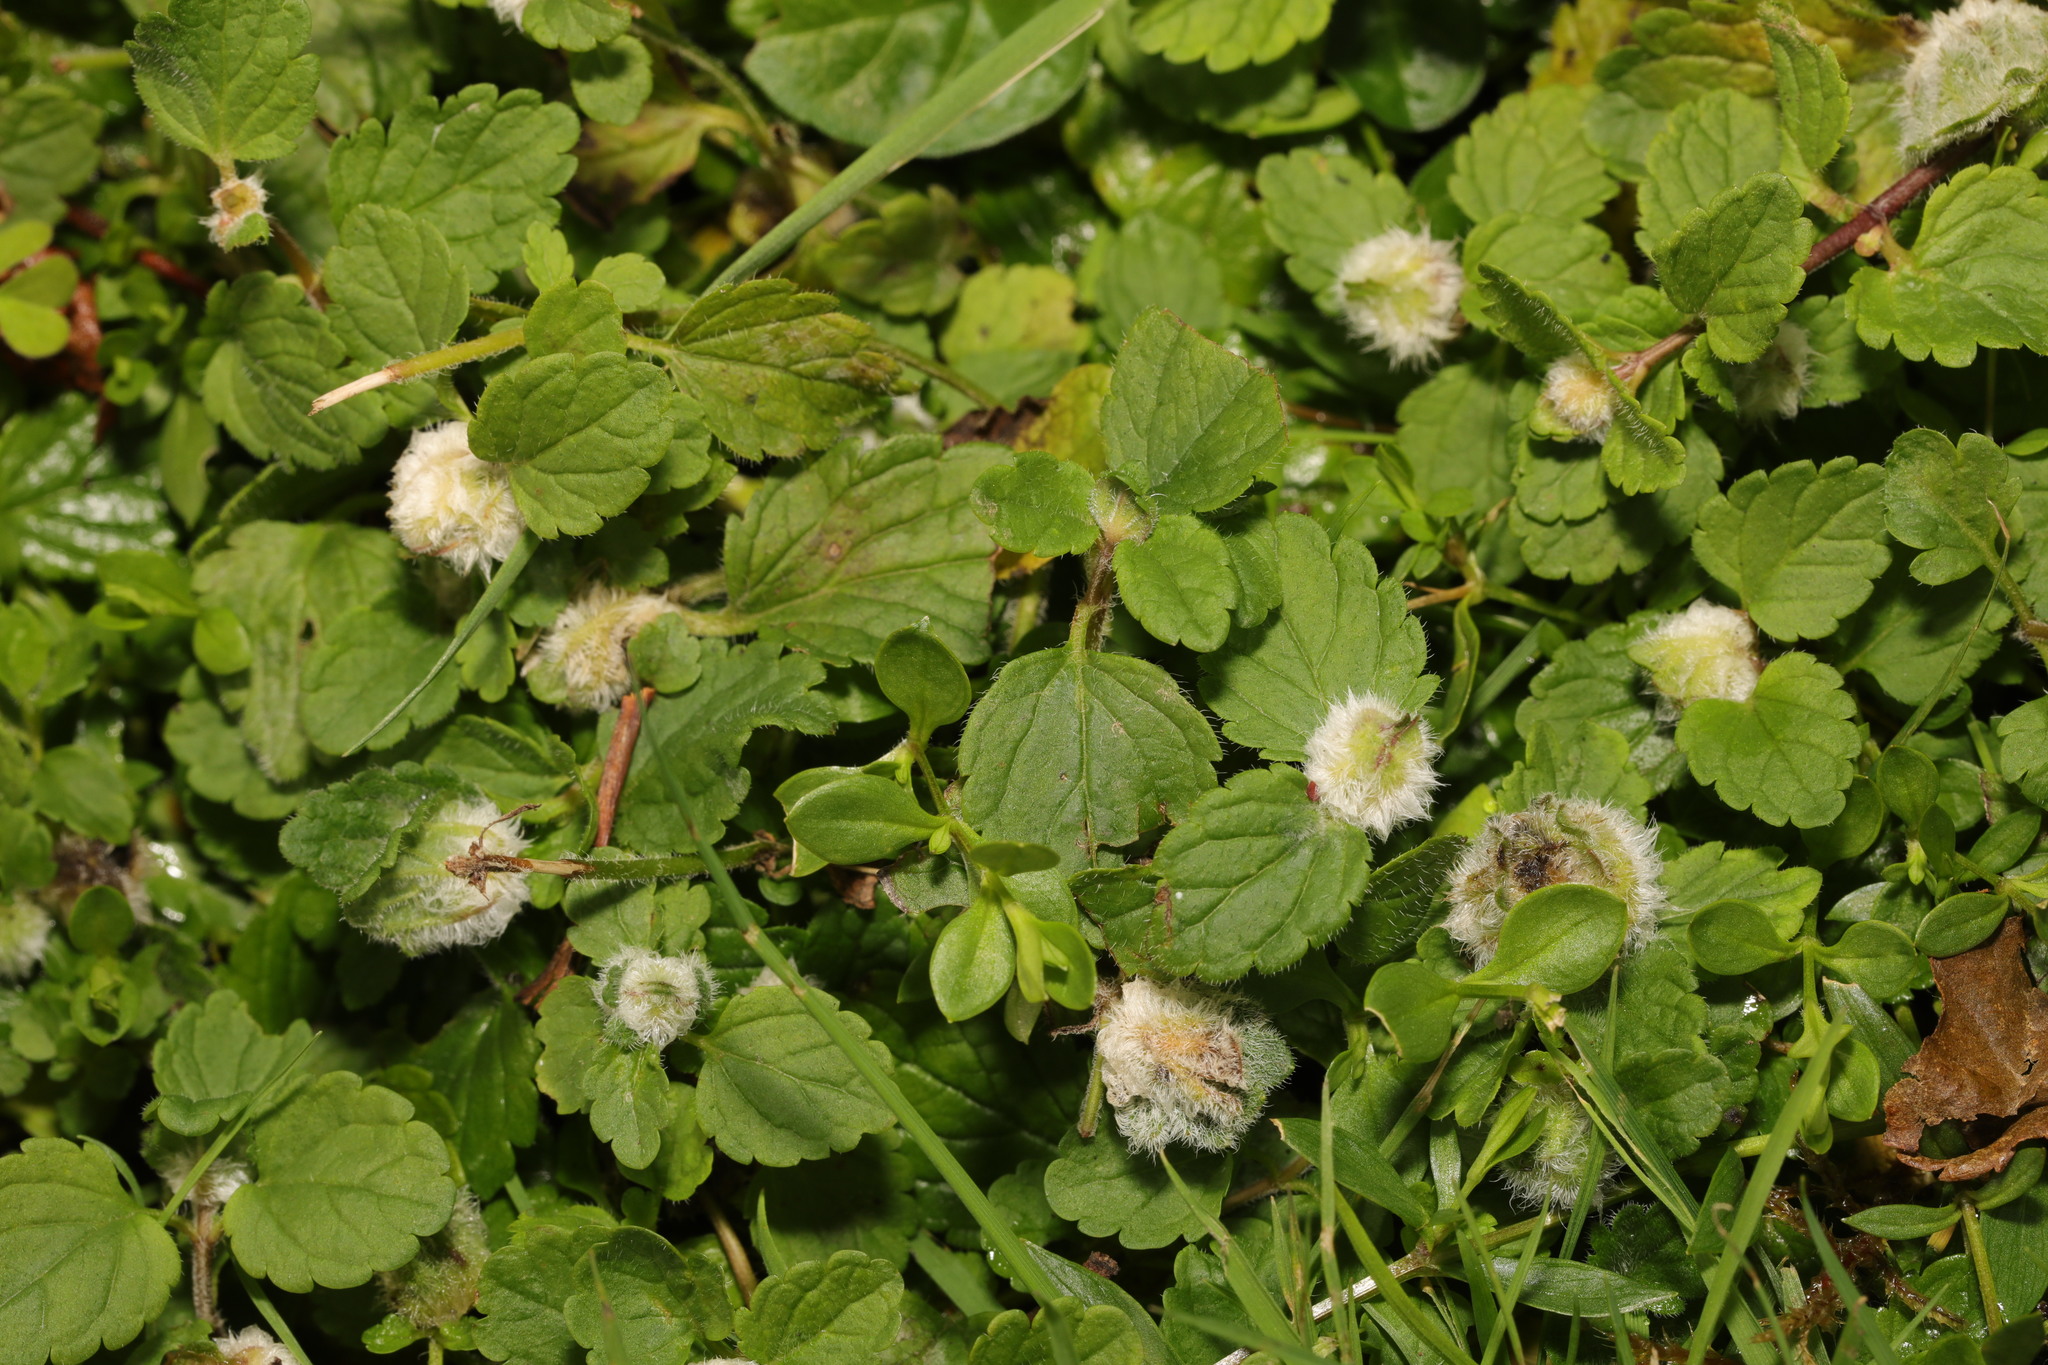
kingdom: Plantae
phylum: Tracheophyta
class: Magnoliopsida
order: Lamiales
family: Plantaginaceae
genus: Veronica
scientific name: Veronica chamaedrys
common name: Germander speedwell
